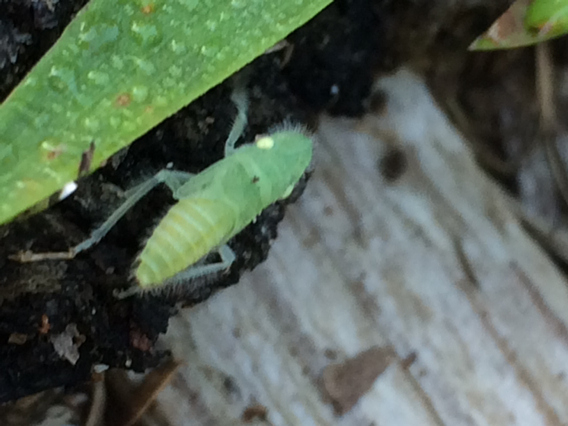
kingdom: Animalia
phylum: Arthropoda
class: Insecta
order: Hemiptera
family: Cicadellidae
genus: Paraulacizes
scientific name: Paraulacizes irrorata
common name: Speckled sharpshooter
